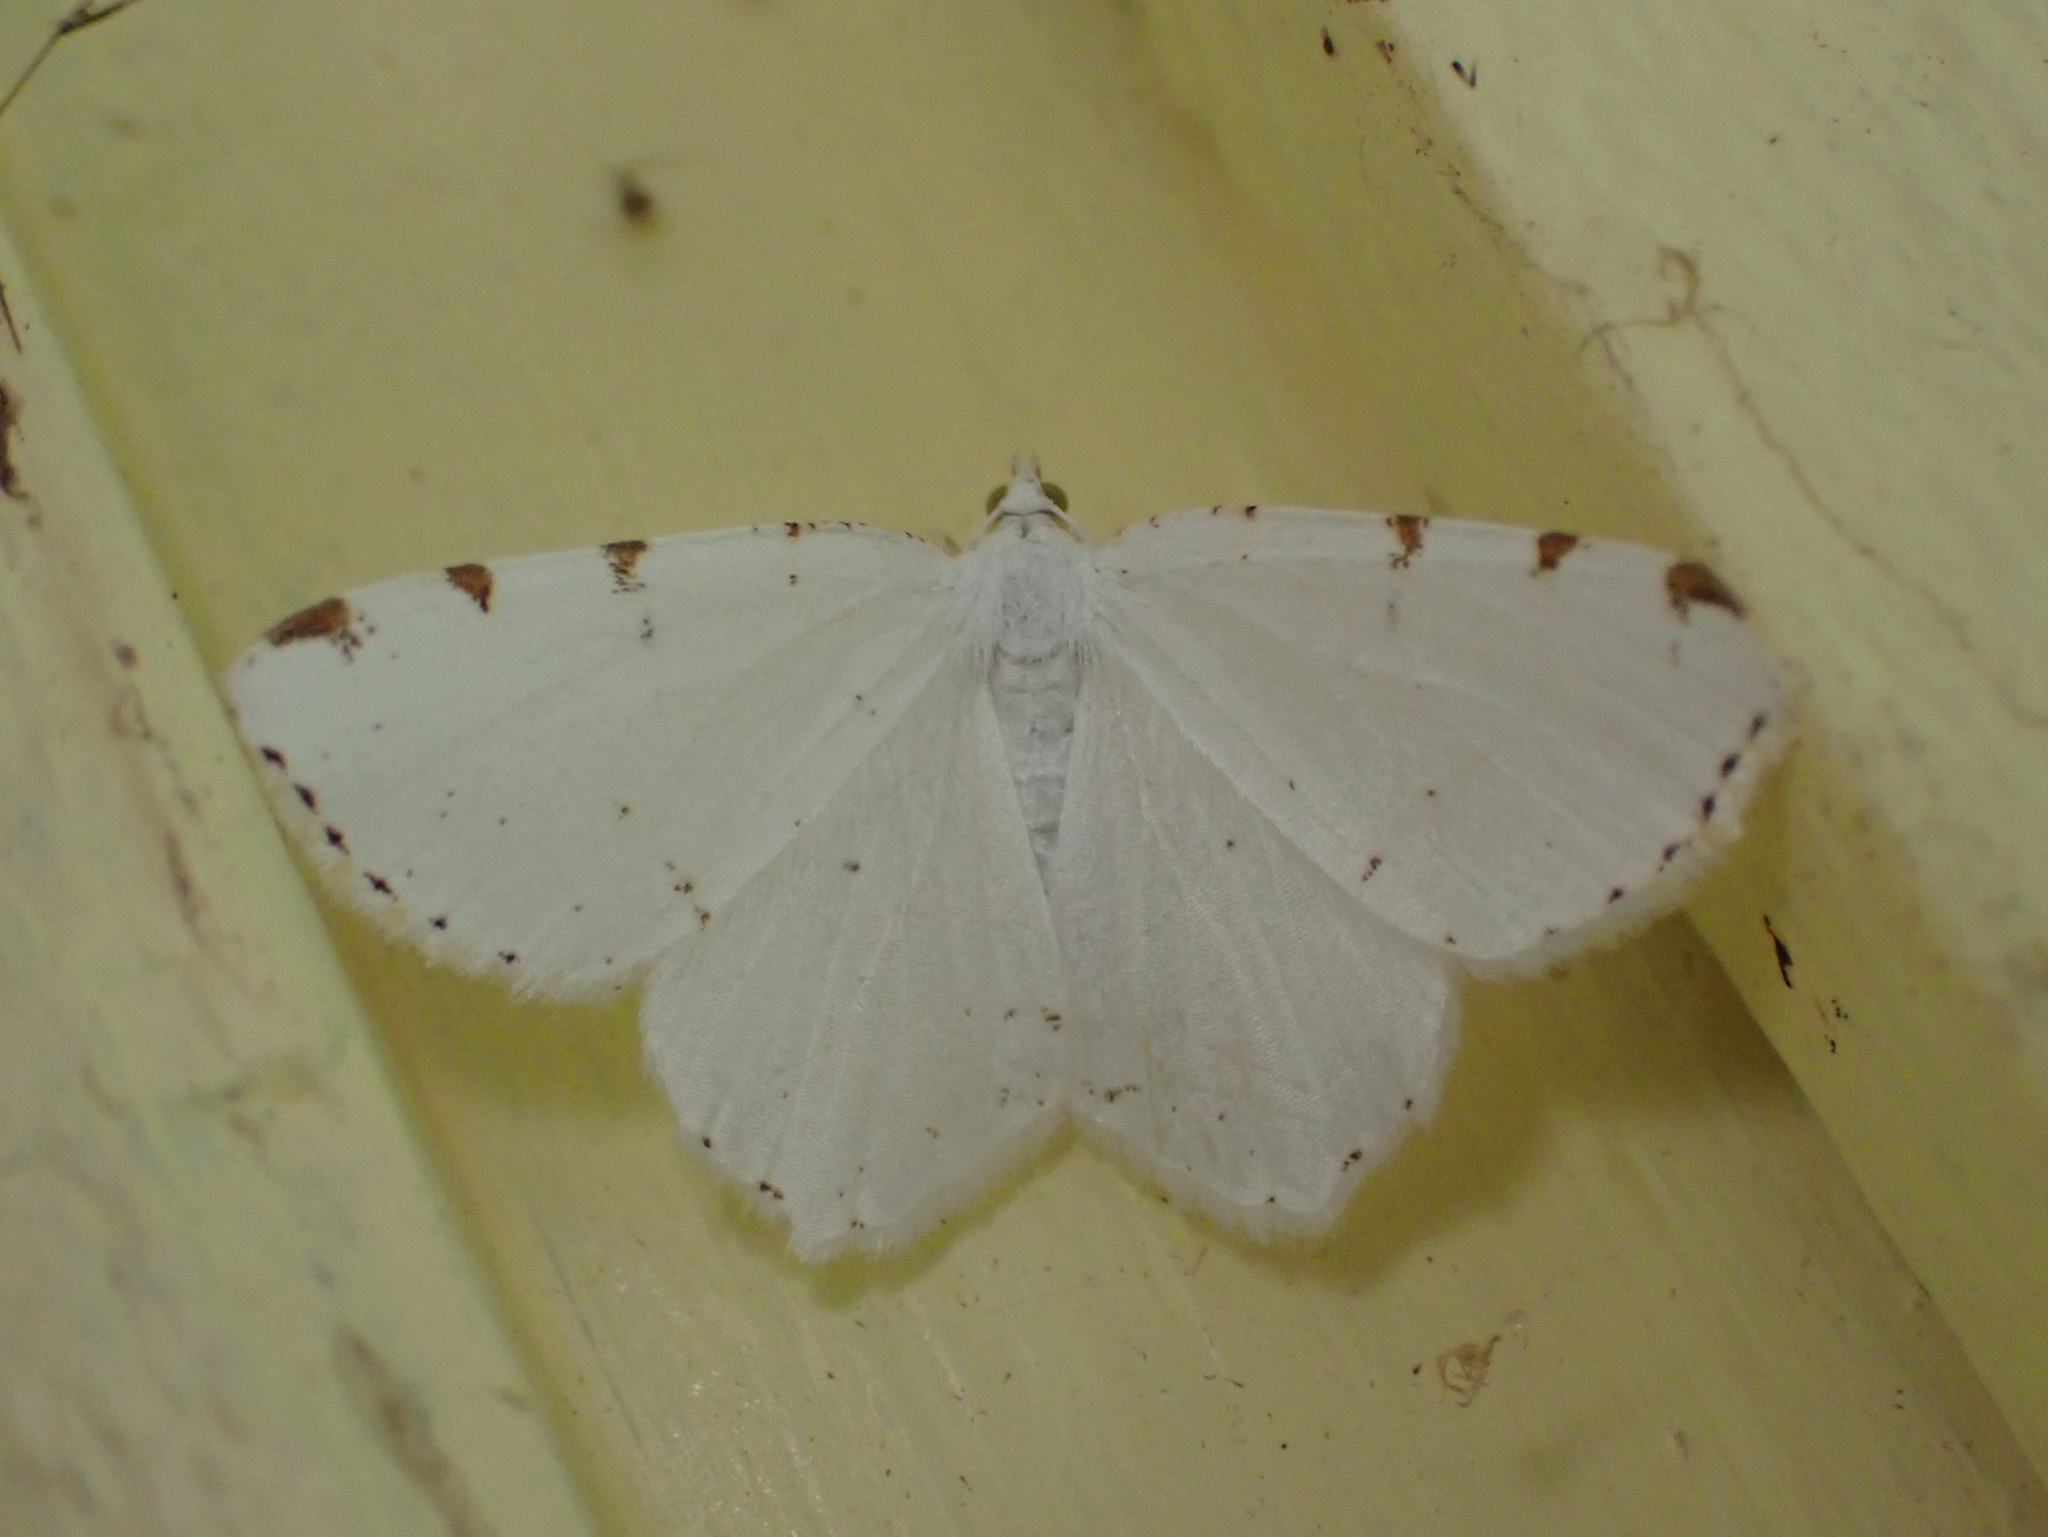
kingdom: Animalia
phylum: Arthropoda
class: Insecta
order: Lepidoptera
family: Geometridae
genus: Macaria
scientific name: Macaria pustularia
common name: Lesser maple spanworm moth
